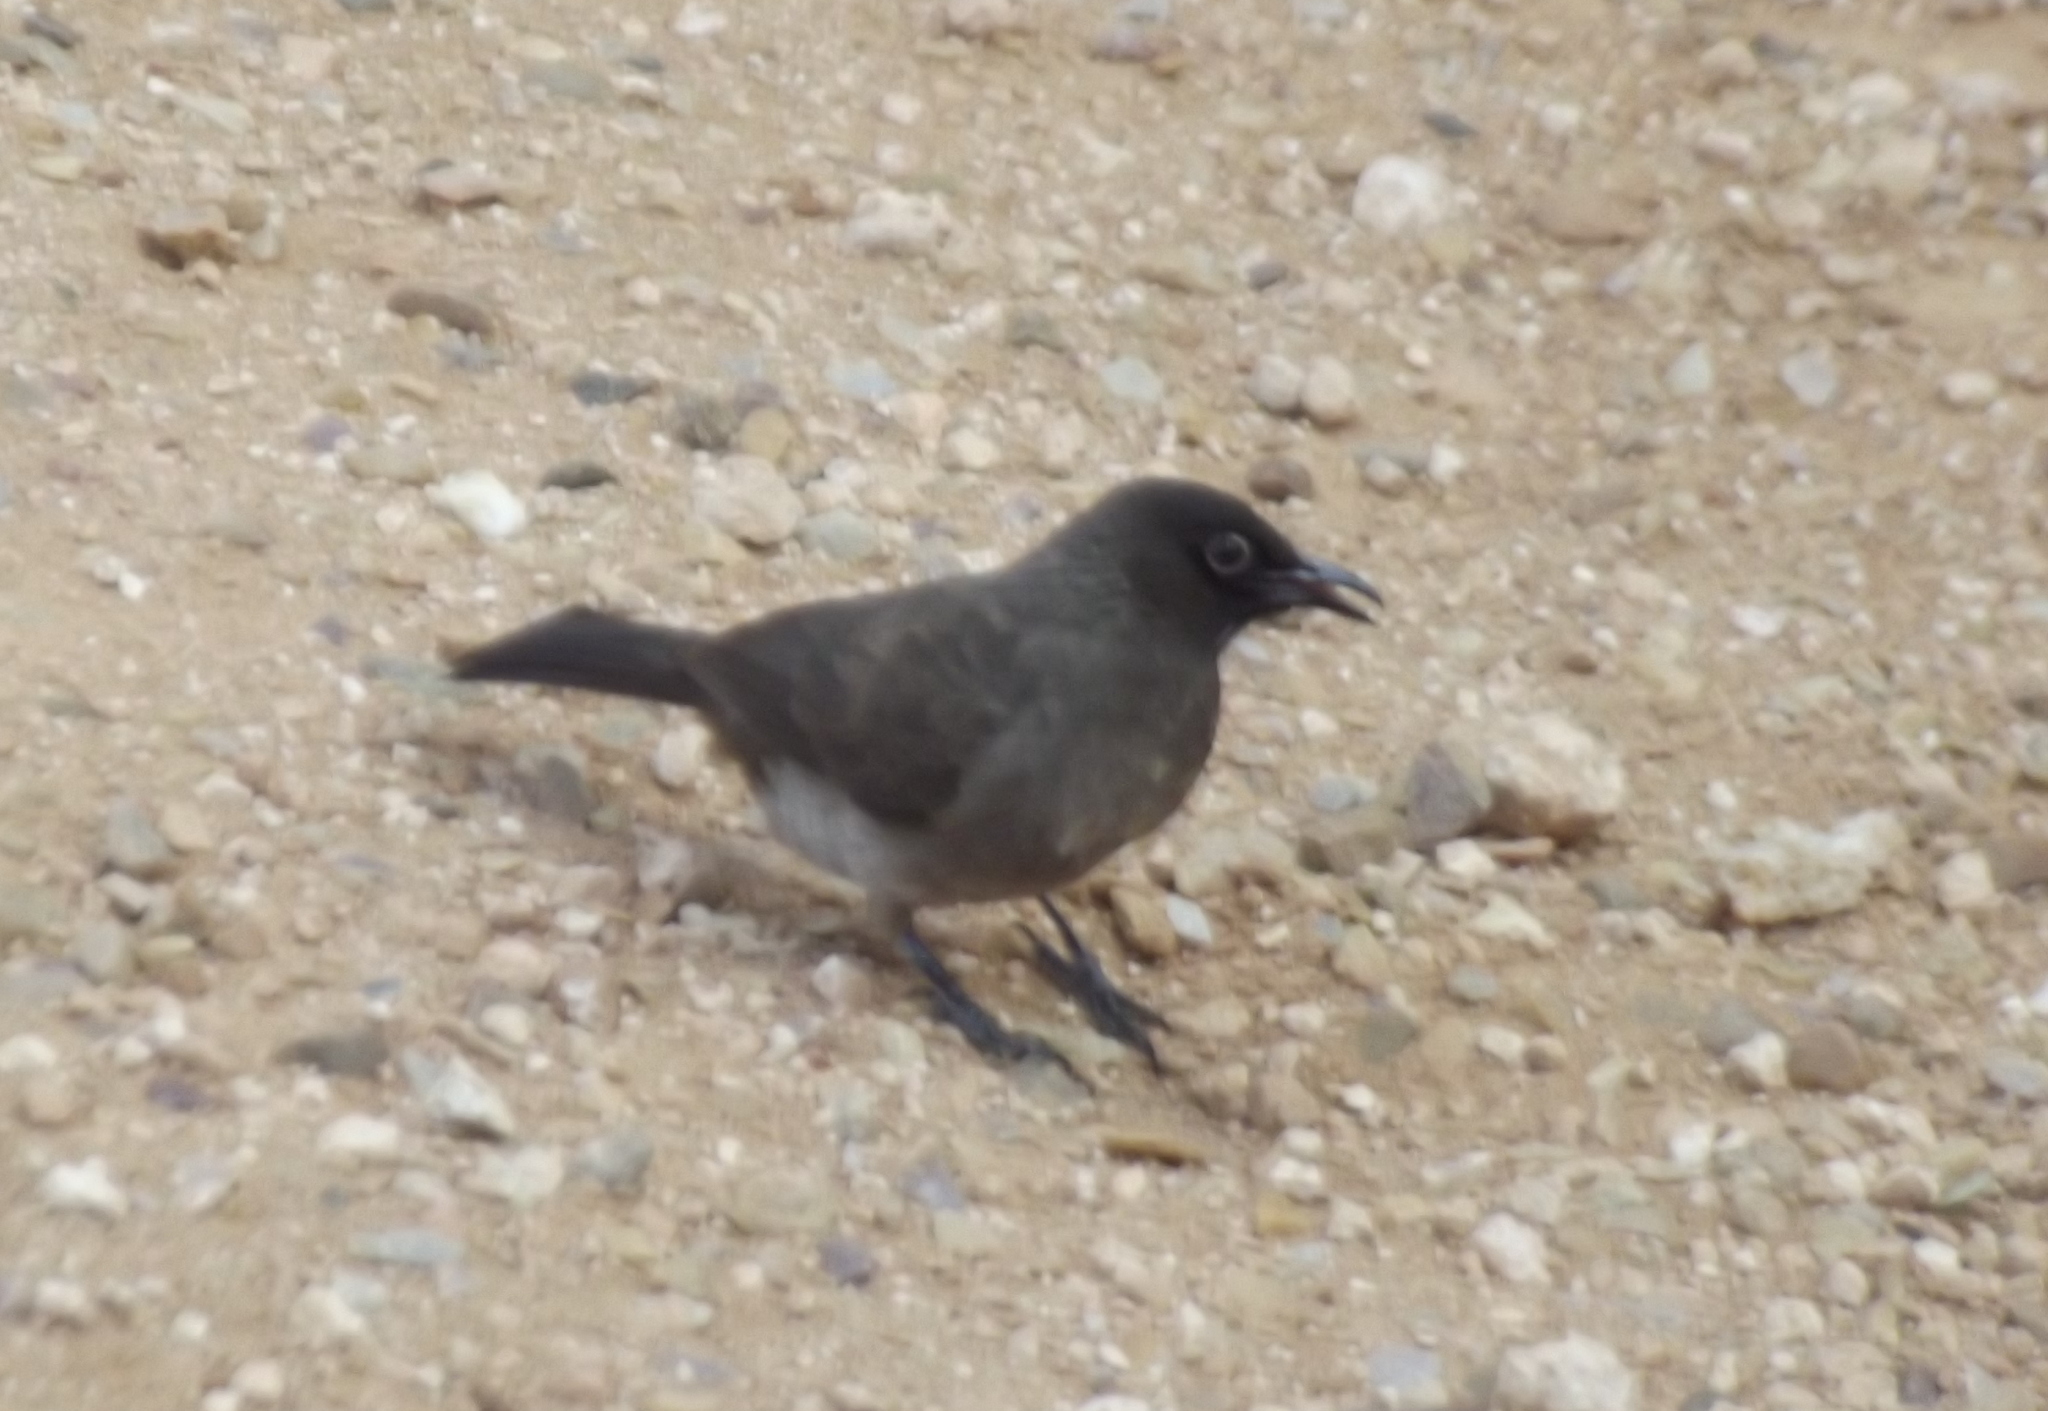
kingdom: Animalia
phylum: Chordata
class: Aves
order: Passeriformes
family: Pycnonotidae
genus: Pycnonotus
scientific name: Pycnonotus barbatus
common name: Common bulbul
